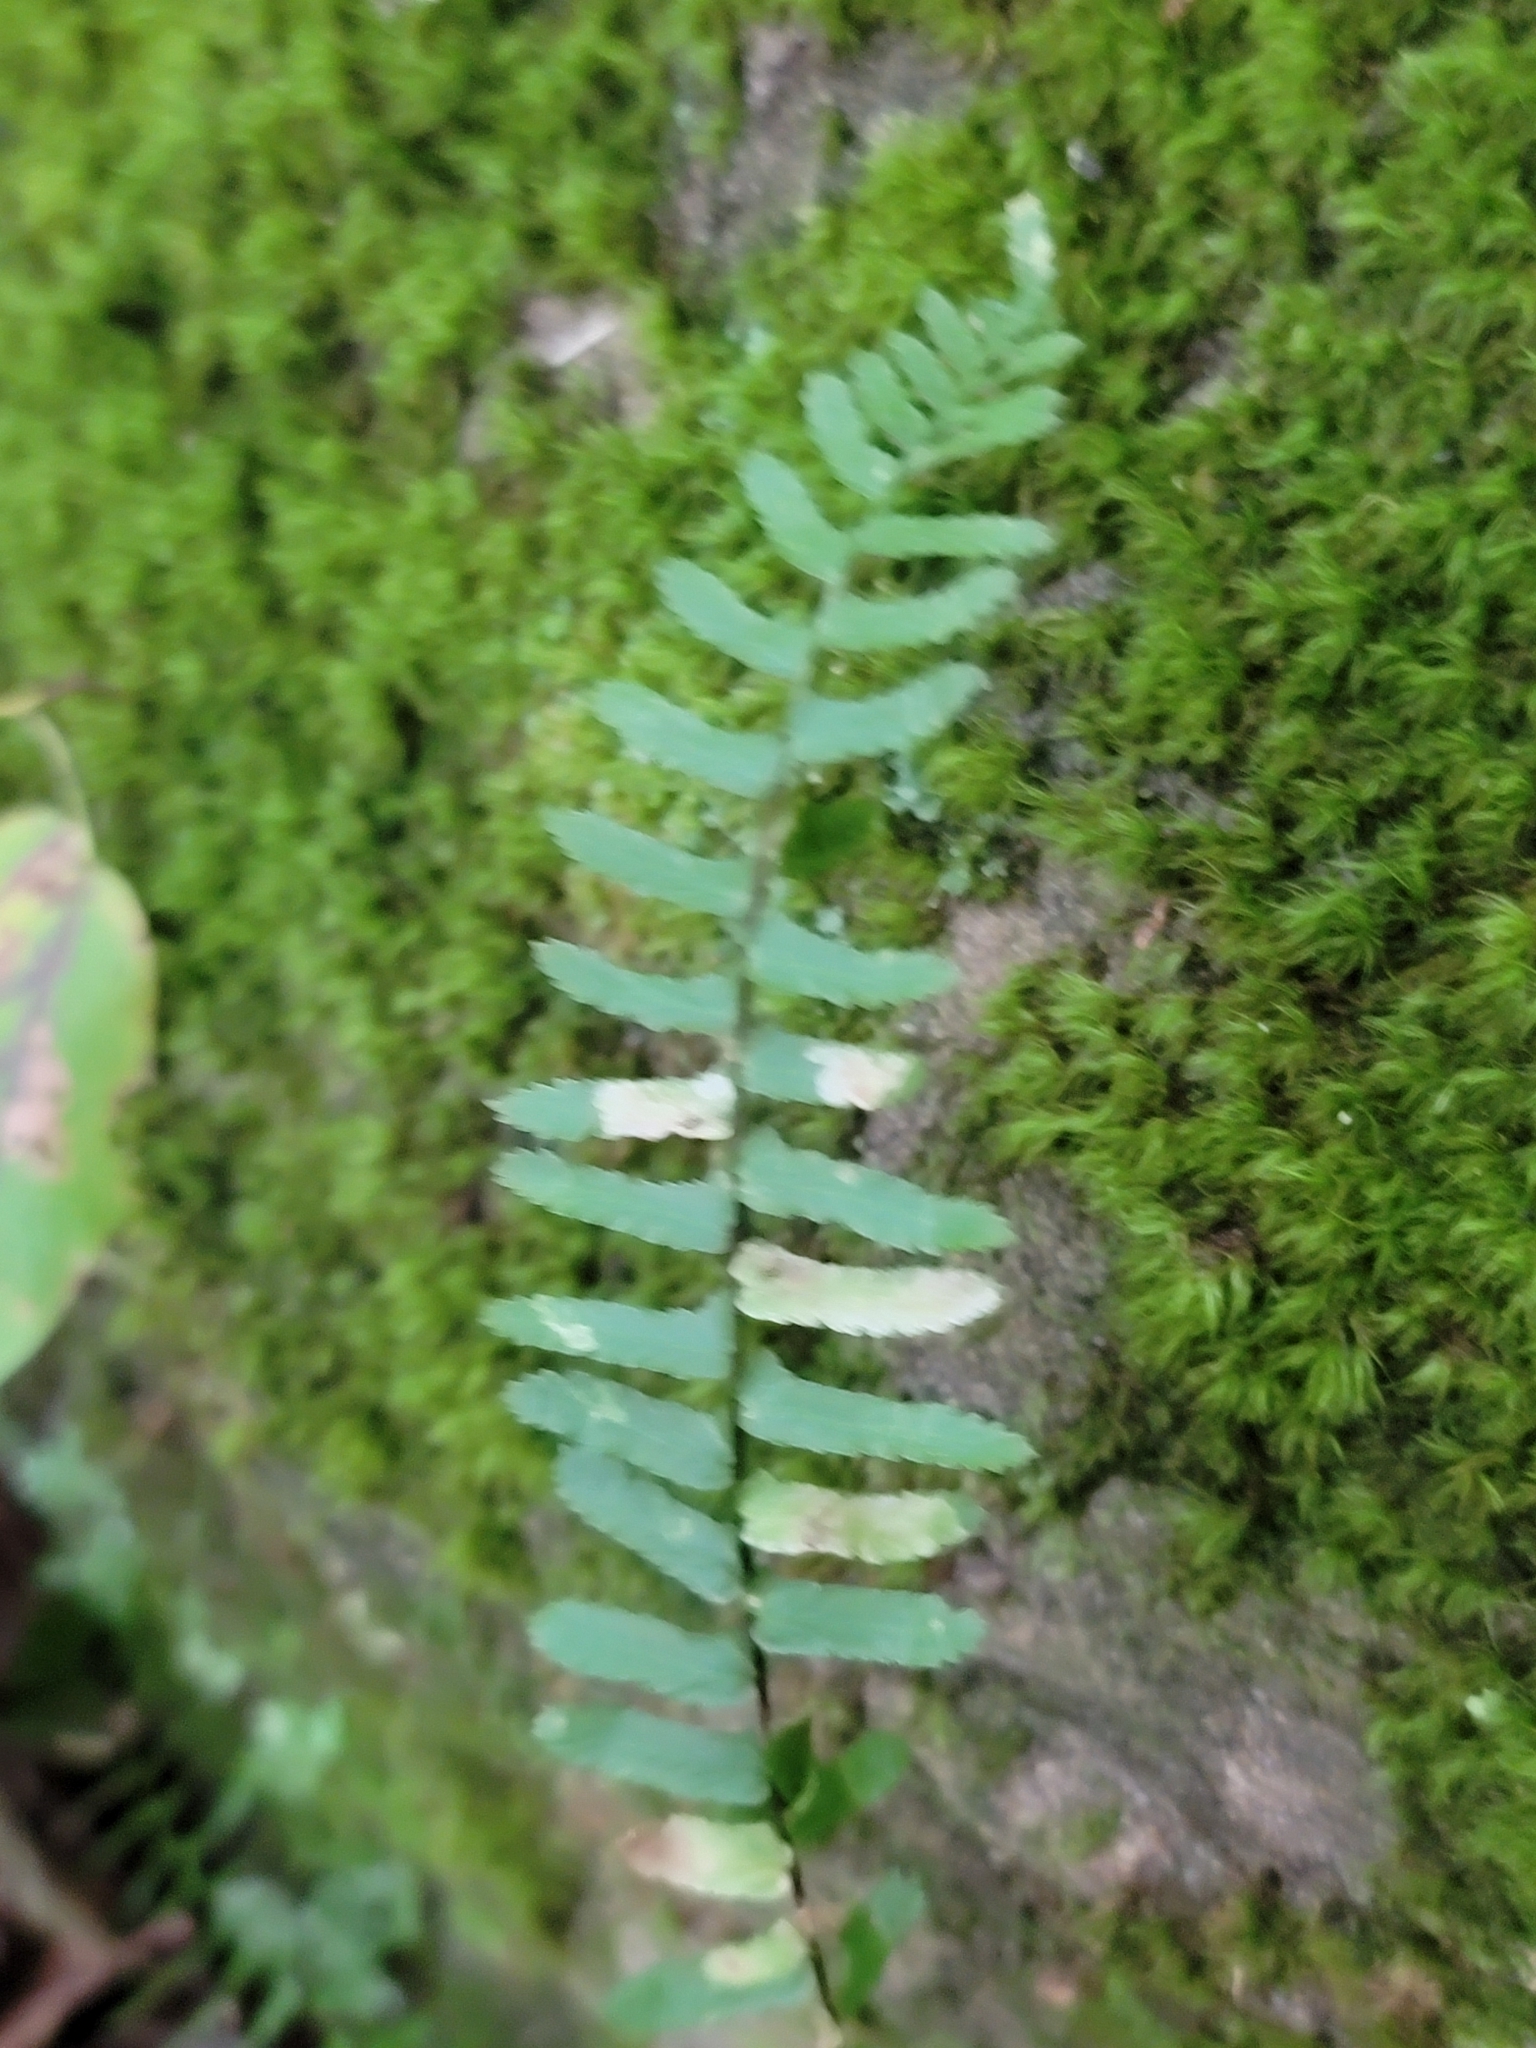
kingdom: Plantae
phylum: Tracheophyta
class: Polypodiopsida
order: Polypodiales
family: Aspleniaceae
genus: Asplenium
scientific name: Asplenium platyneuron
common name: Ebony spleenwort
